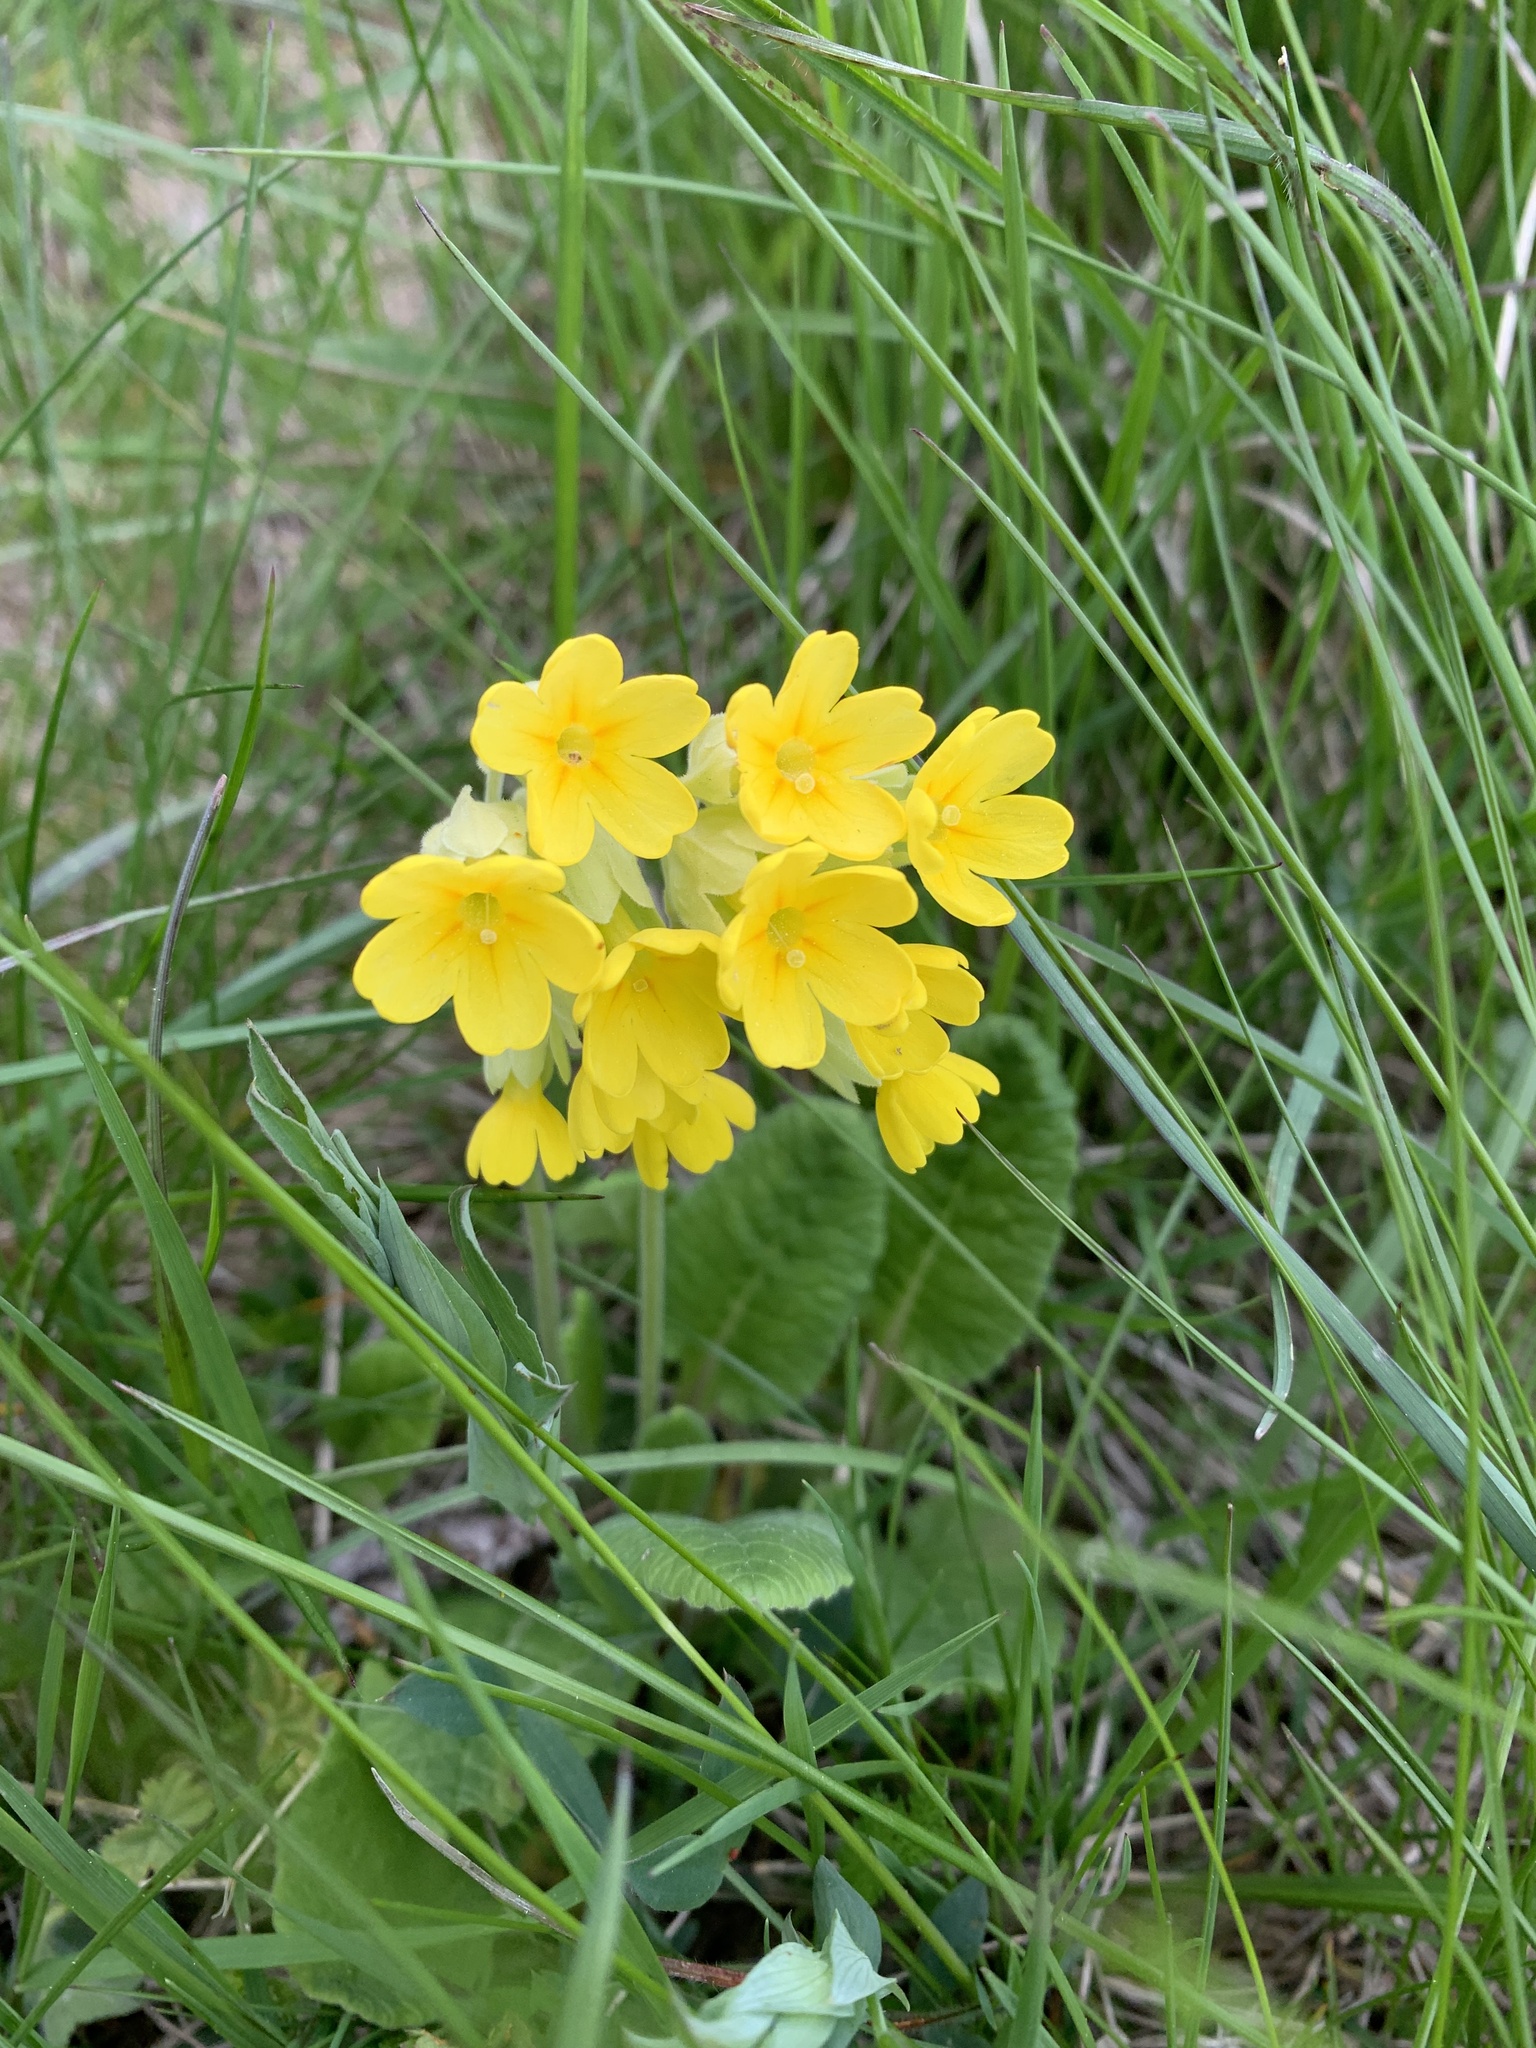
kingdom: Plantae
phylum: Tracheophyta
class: Magnoliopsida
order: Ericales
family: Primulaceae
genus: Primula
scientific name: Primula veris
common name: Cowslip
